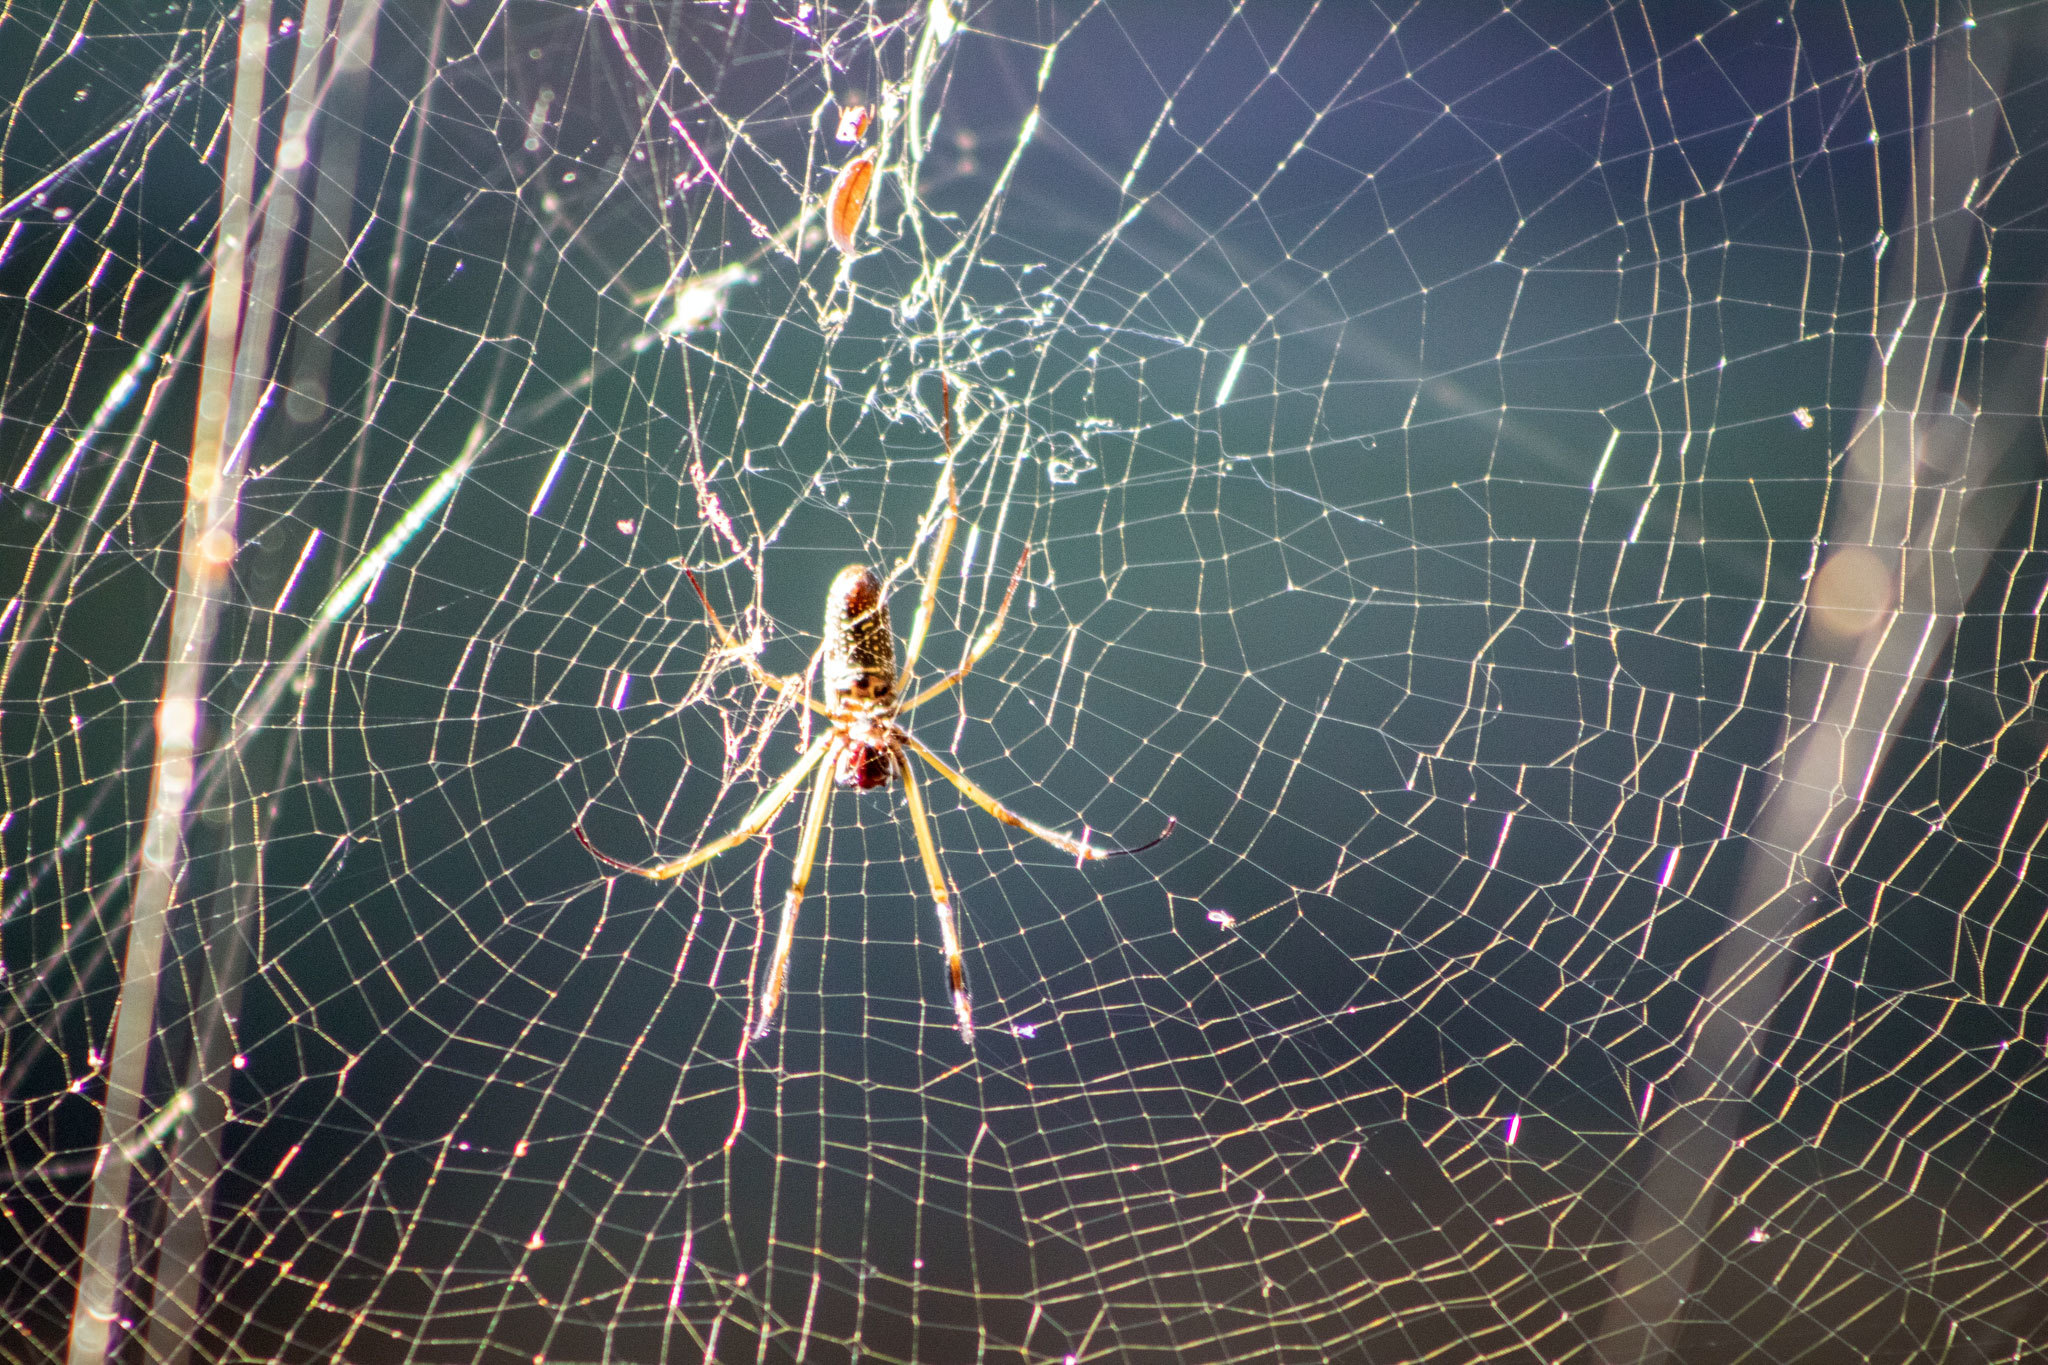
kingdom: Animalia
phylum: Arthropoda
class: Arachnida
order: Araneae
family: Araneidae
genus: Trichonephila
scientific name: Trichonephila clavipes
